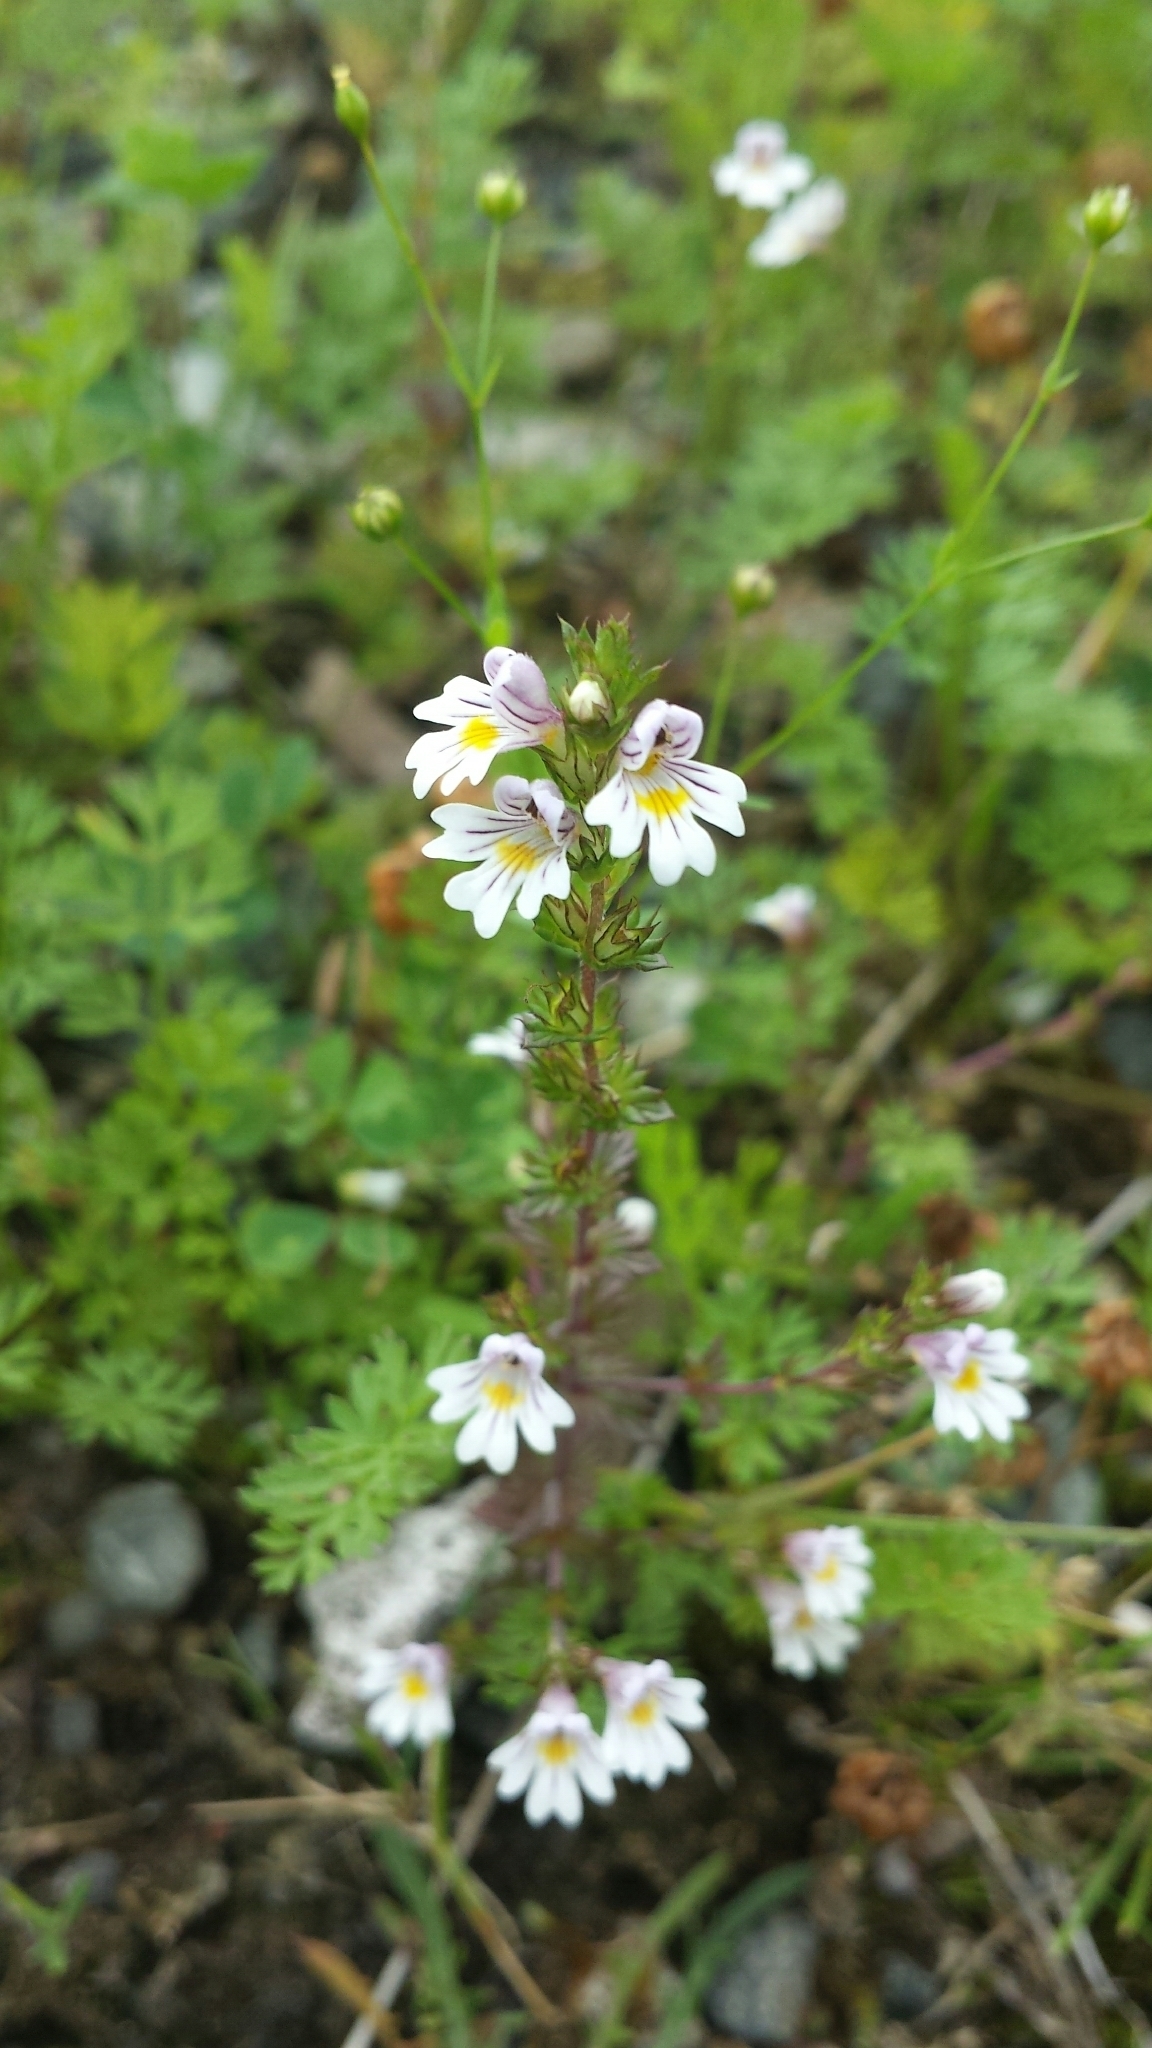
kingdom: Plantae
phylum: Tracheophyta
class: Magnoliopsida
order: Lamiales
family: Orobanchaceae
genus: Euphrasia
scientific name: Euphrasia nemorosa
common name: Common eyebright
